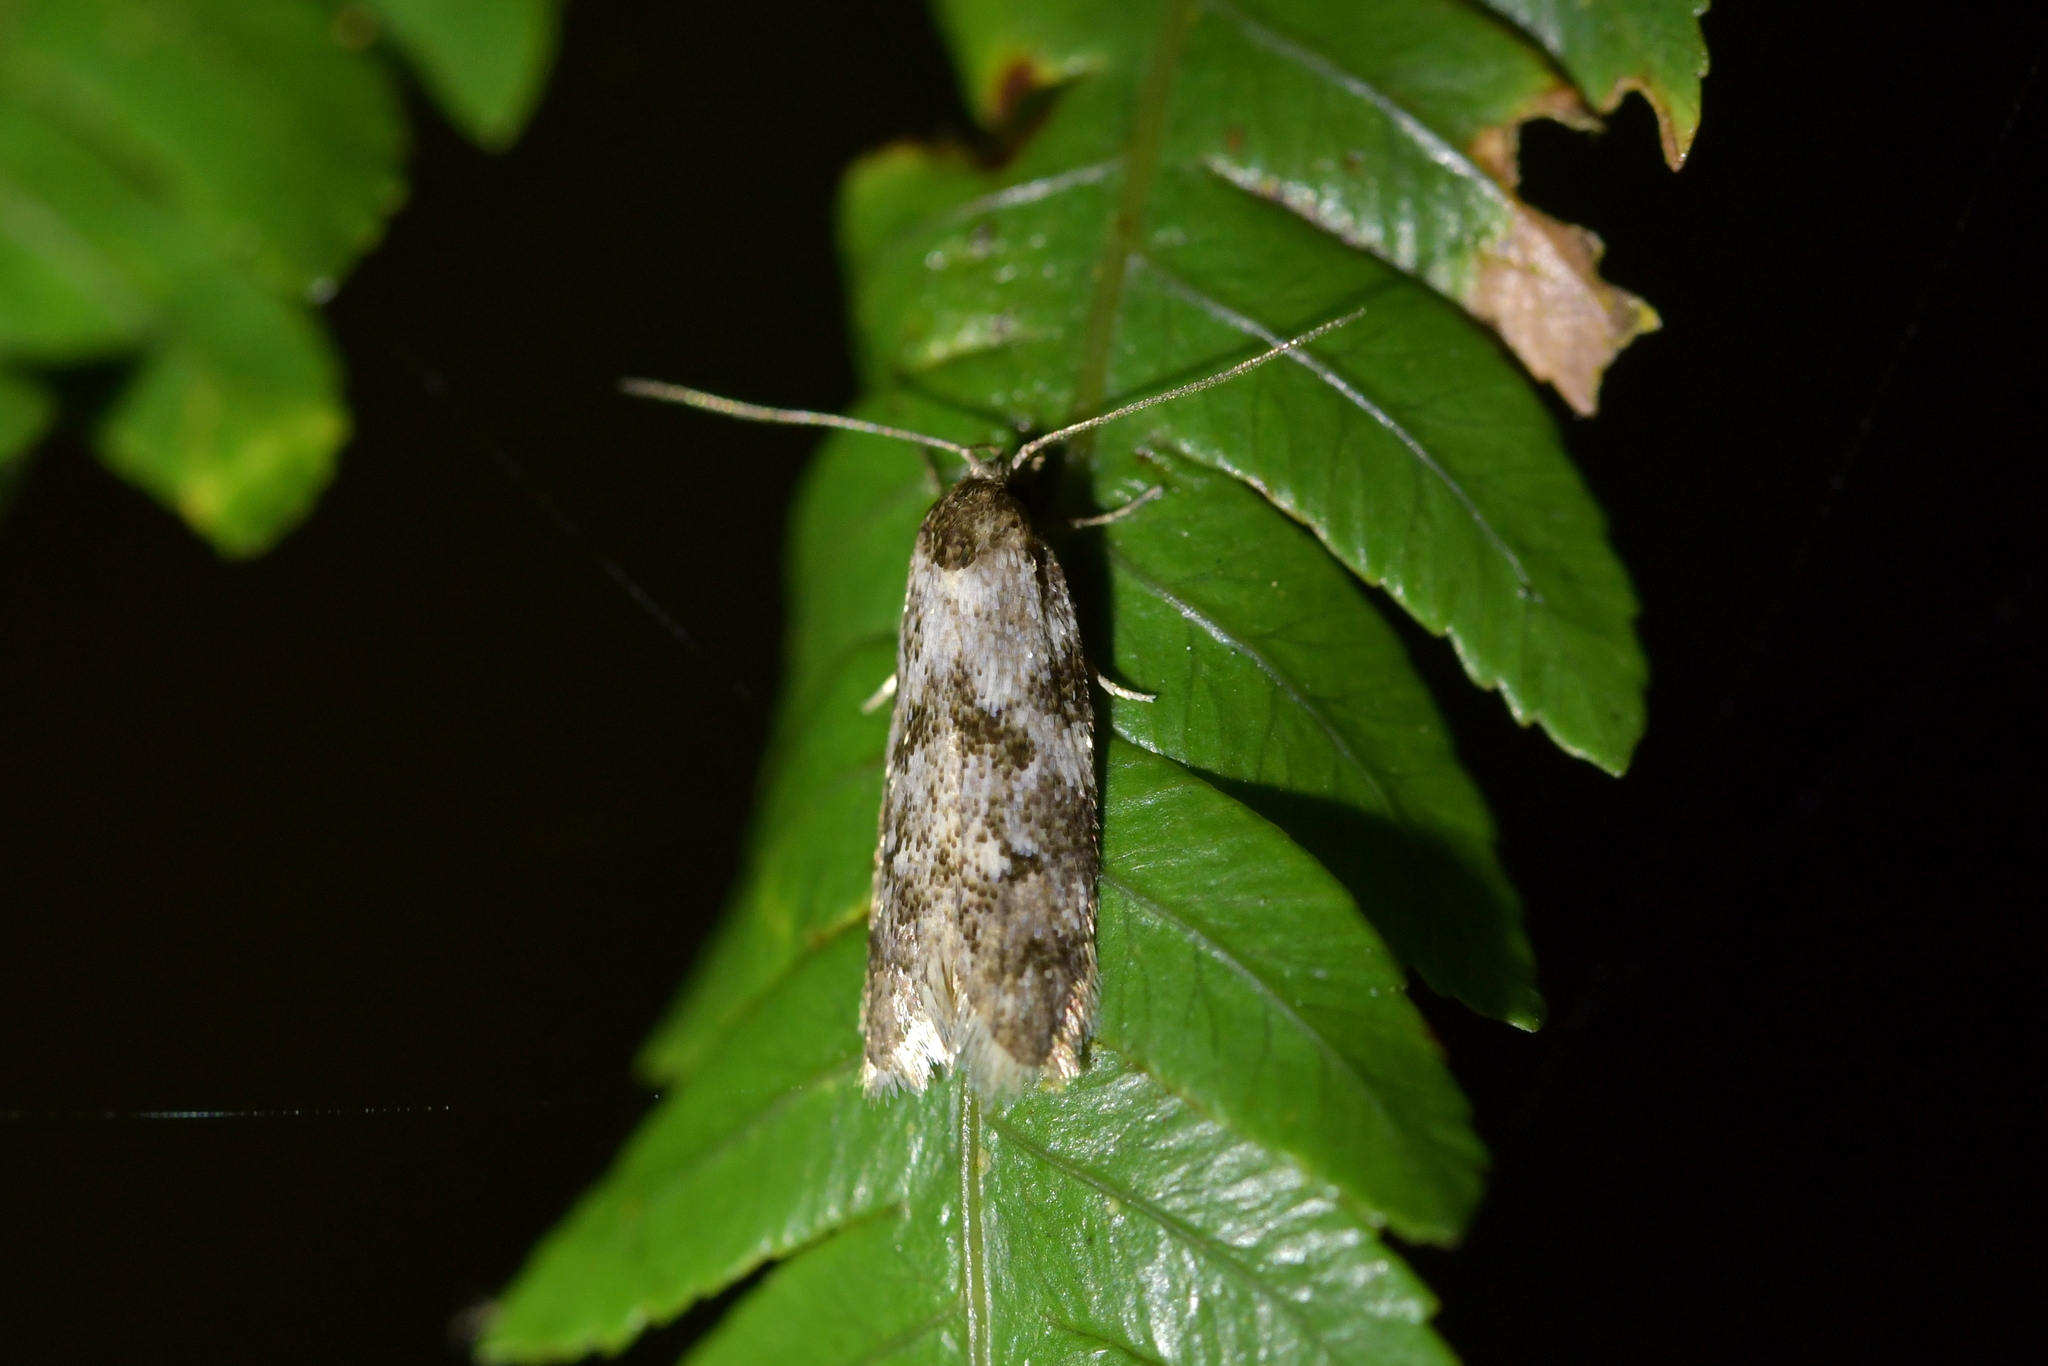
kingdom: Animalia
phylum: Arthropoda
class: Insecta
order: Lepidoptera
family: Oecophoridae
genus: Tingena
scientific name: Tingena clarkei
